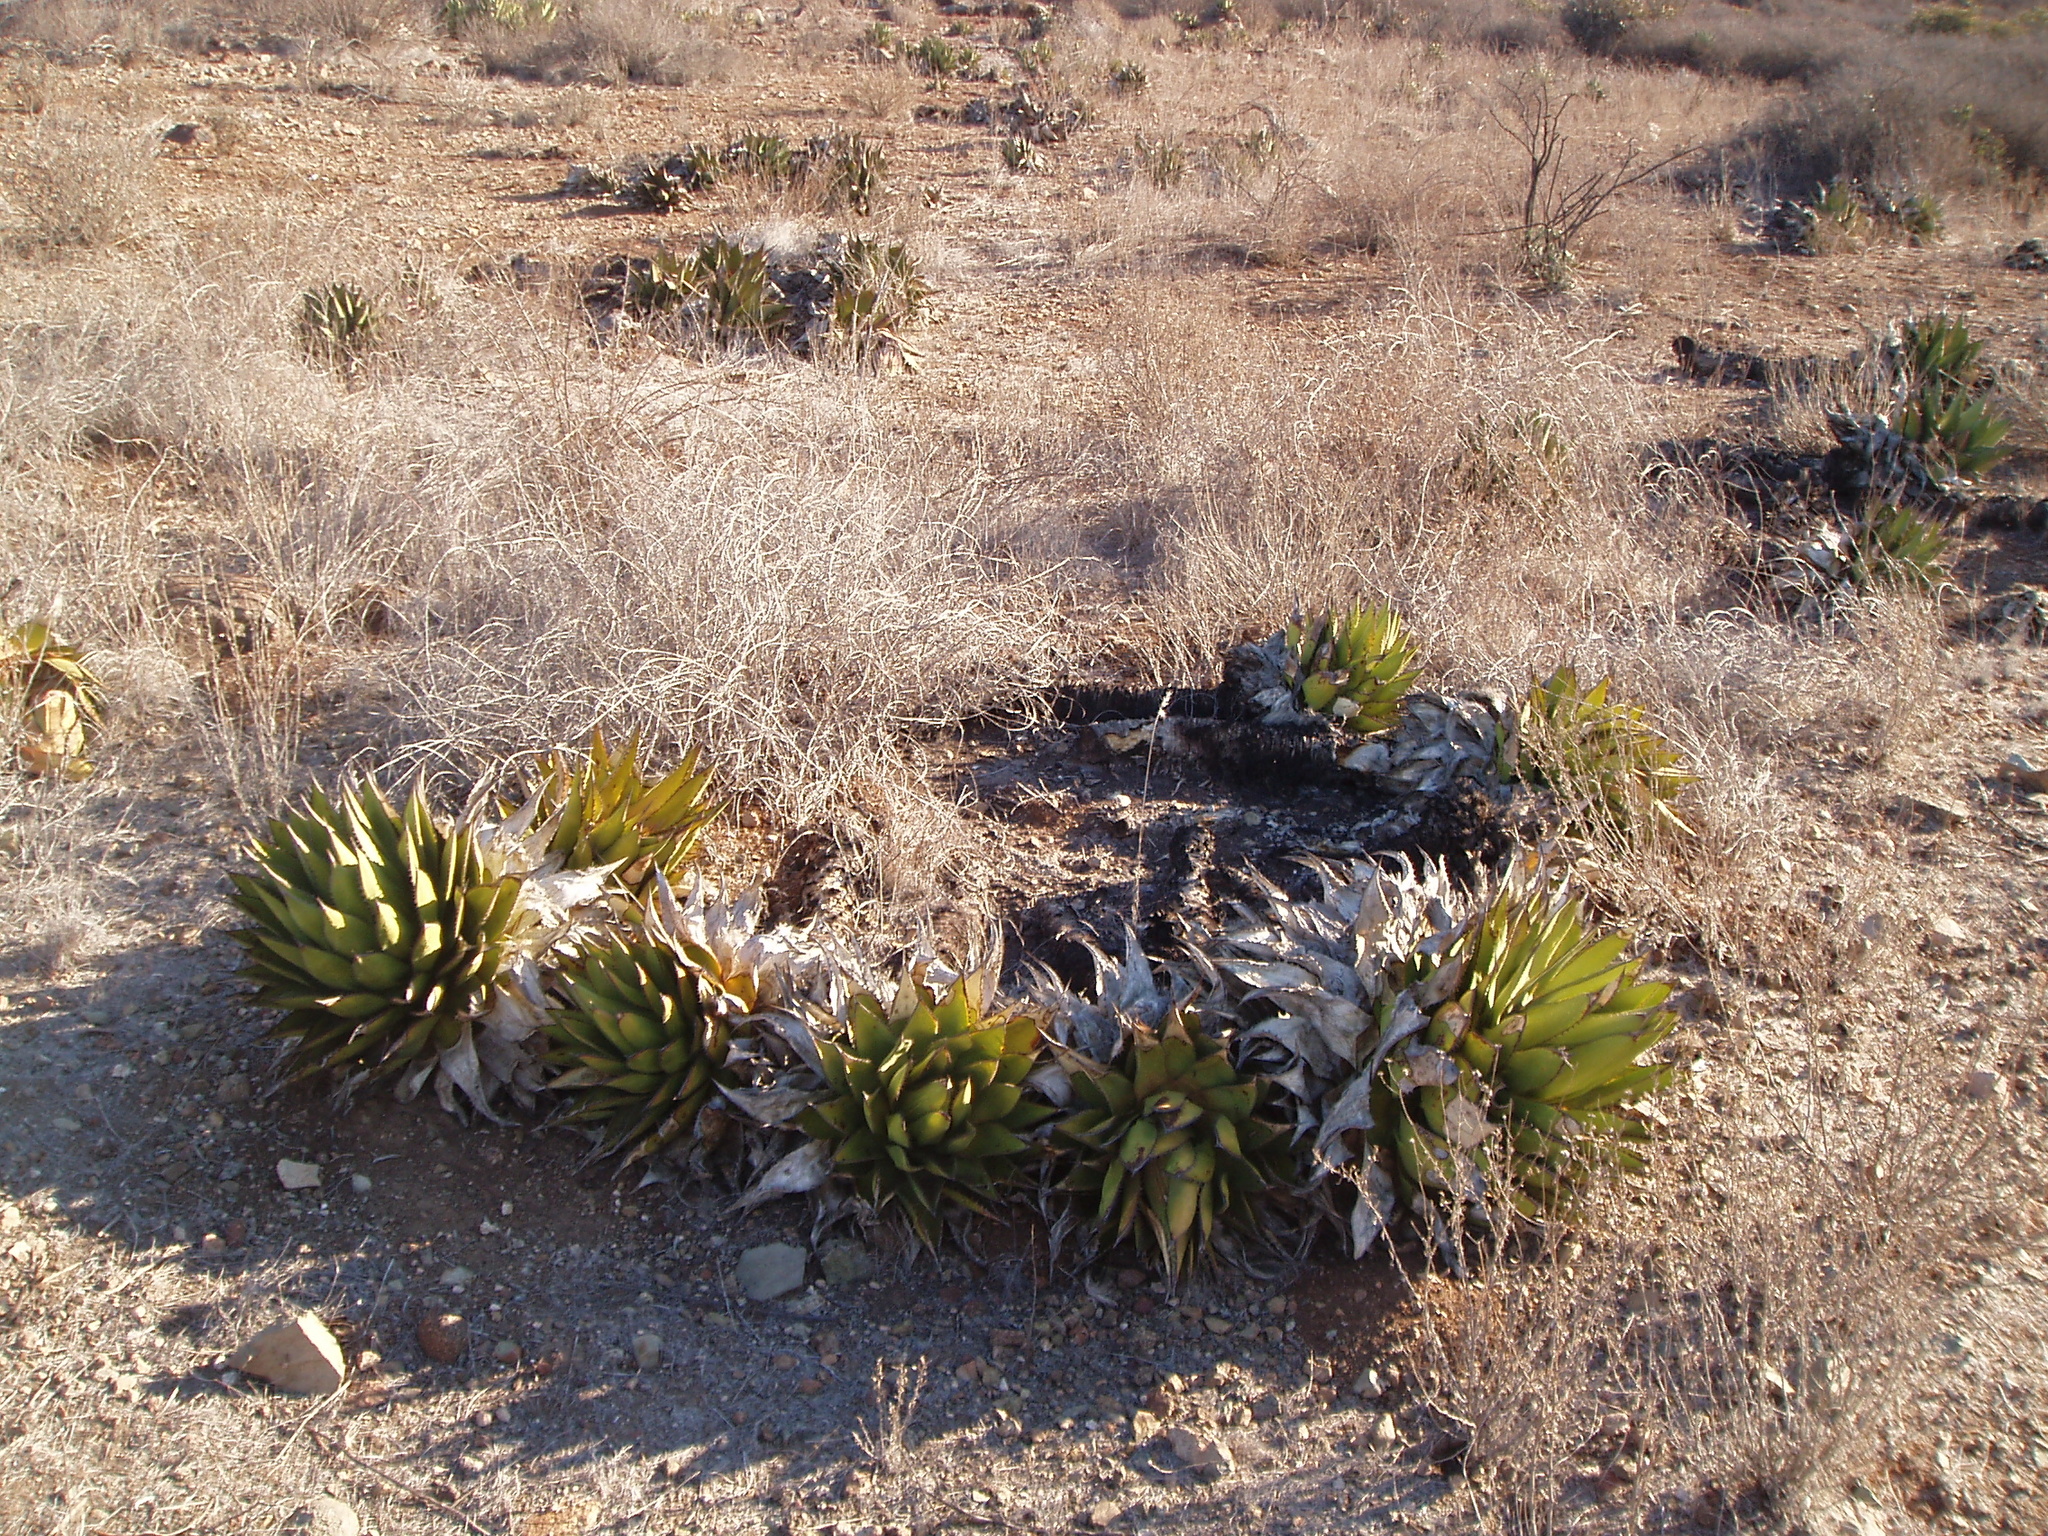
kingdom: Plantae
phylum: Tracheophyta
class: Liliopsida
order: Asparagales
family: Asparagaceae
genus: Agave
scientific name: Agave shawii
